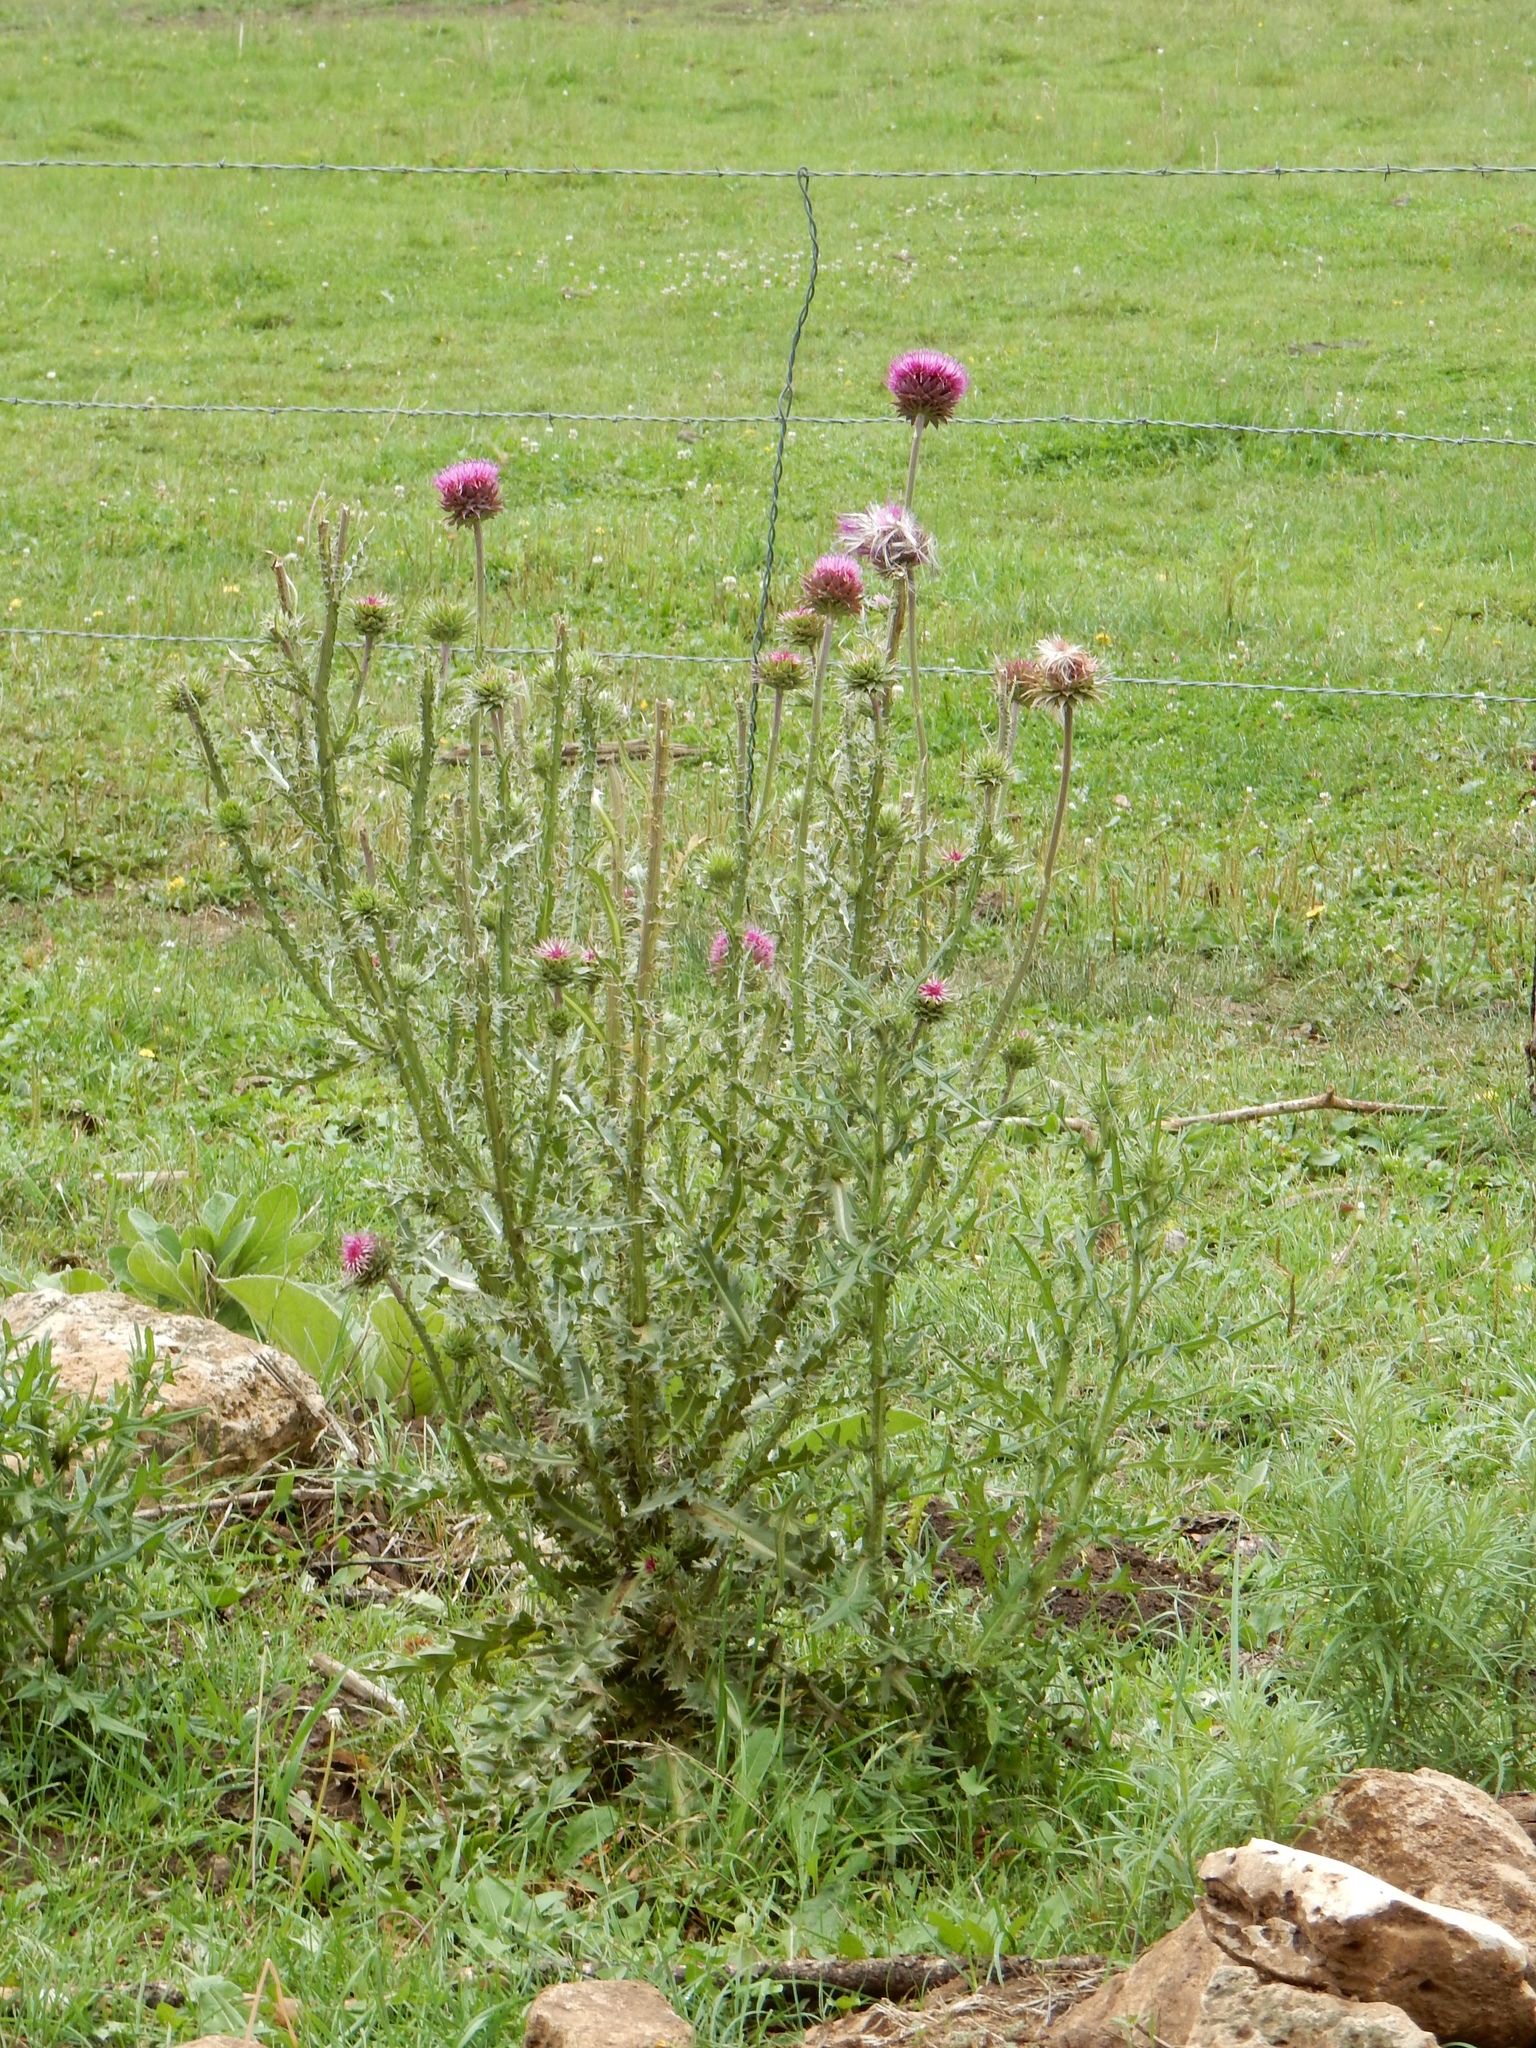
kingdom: Plantae
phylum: Tracheophyta
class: Magnoliopsida
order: Asterales
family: Asteraceae
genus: Carduus
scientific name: Carduus nutans
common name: Musk thistle
